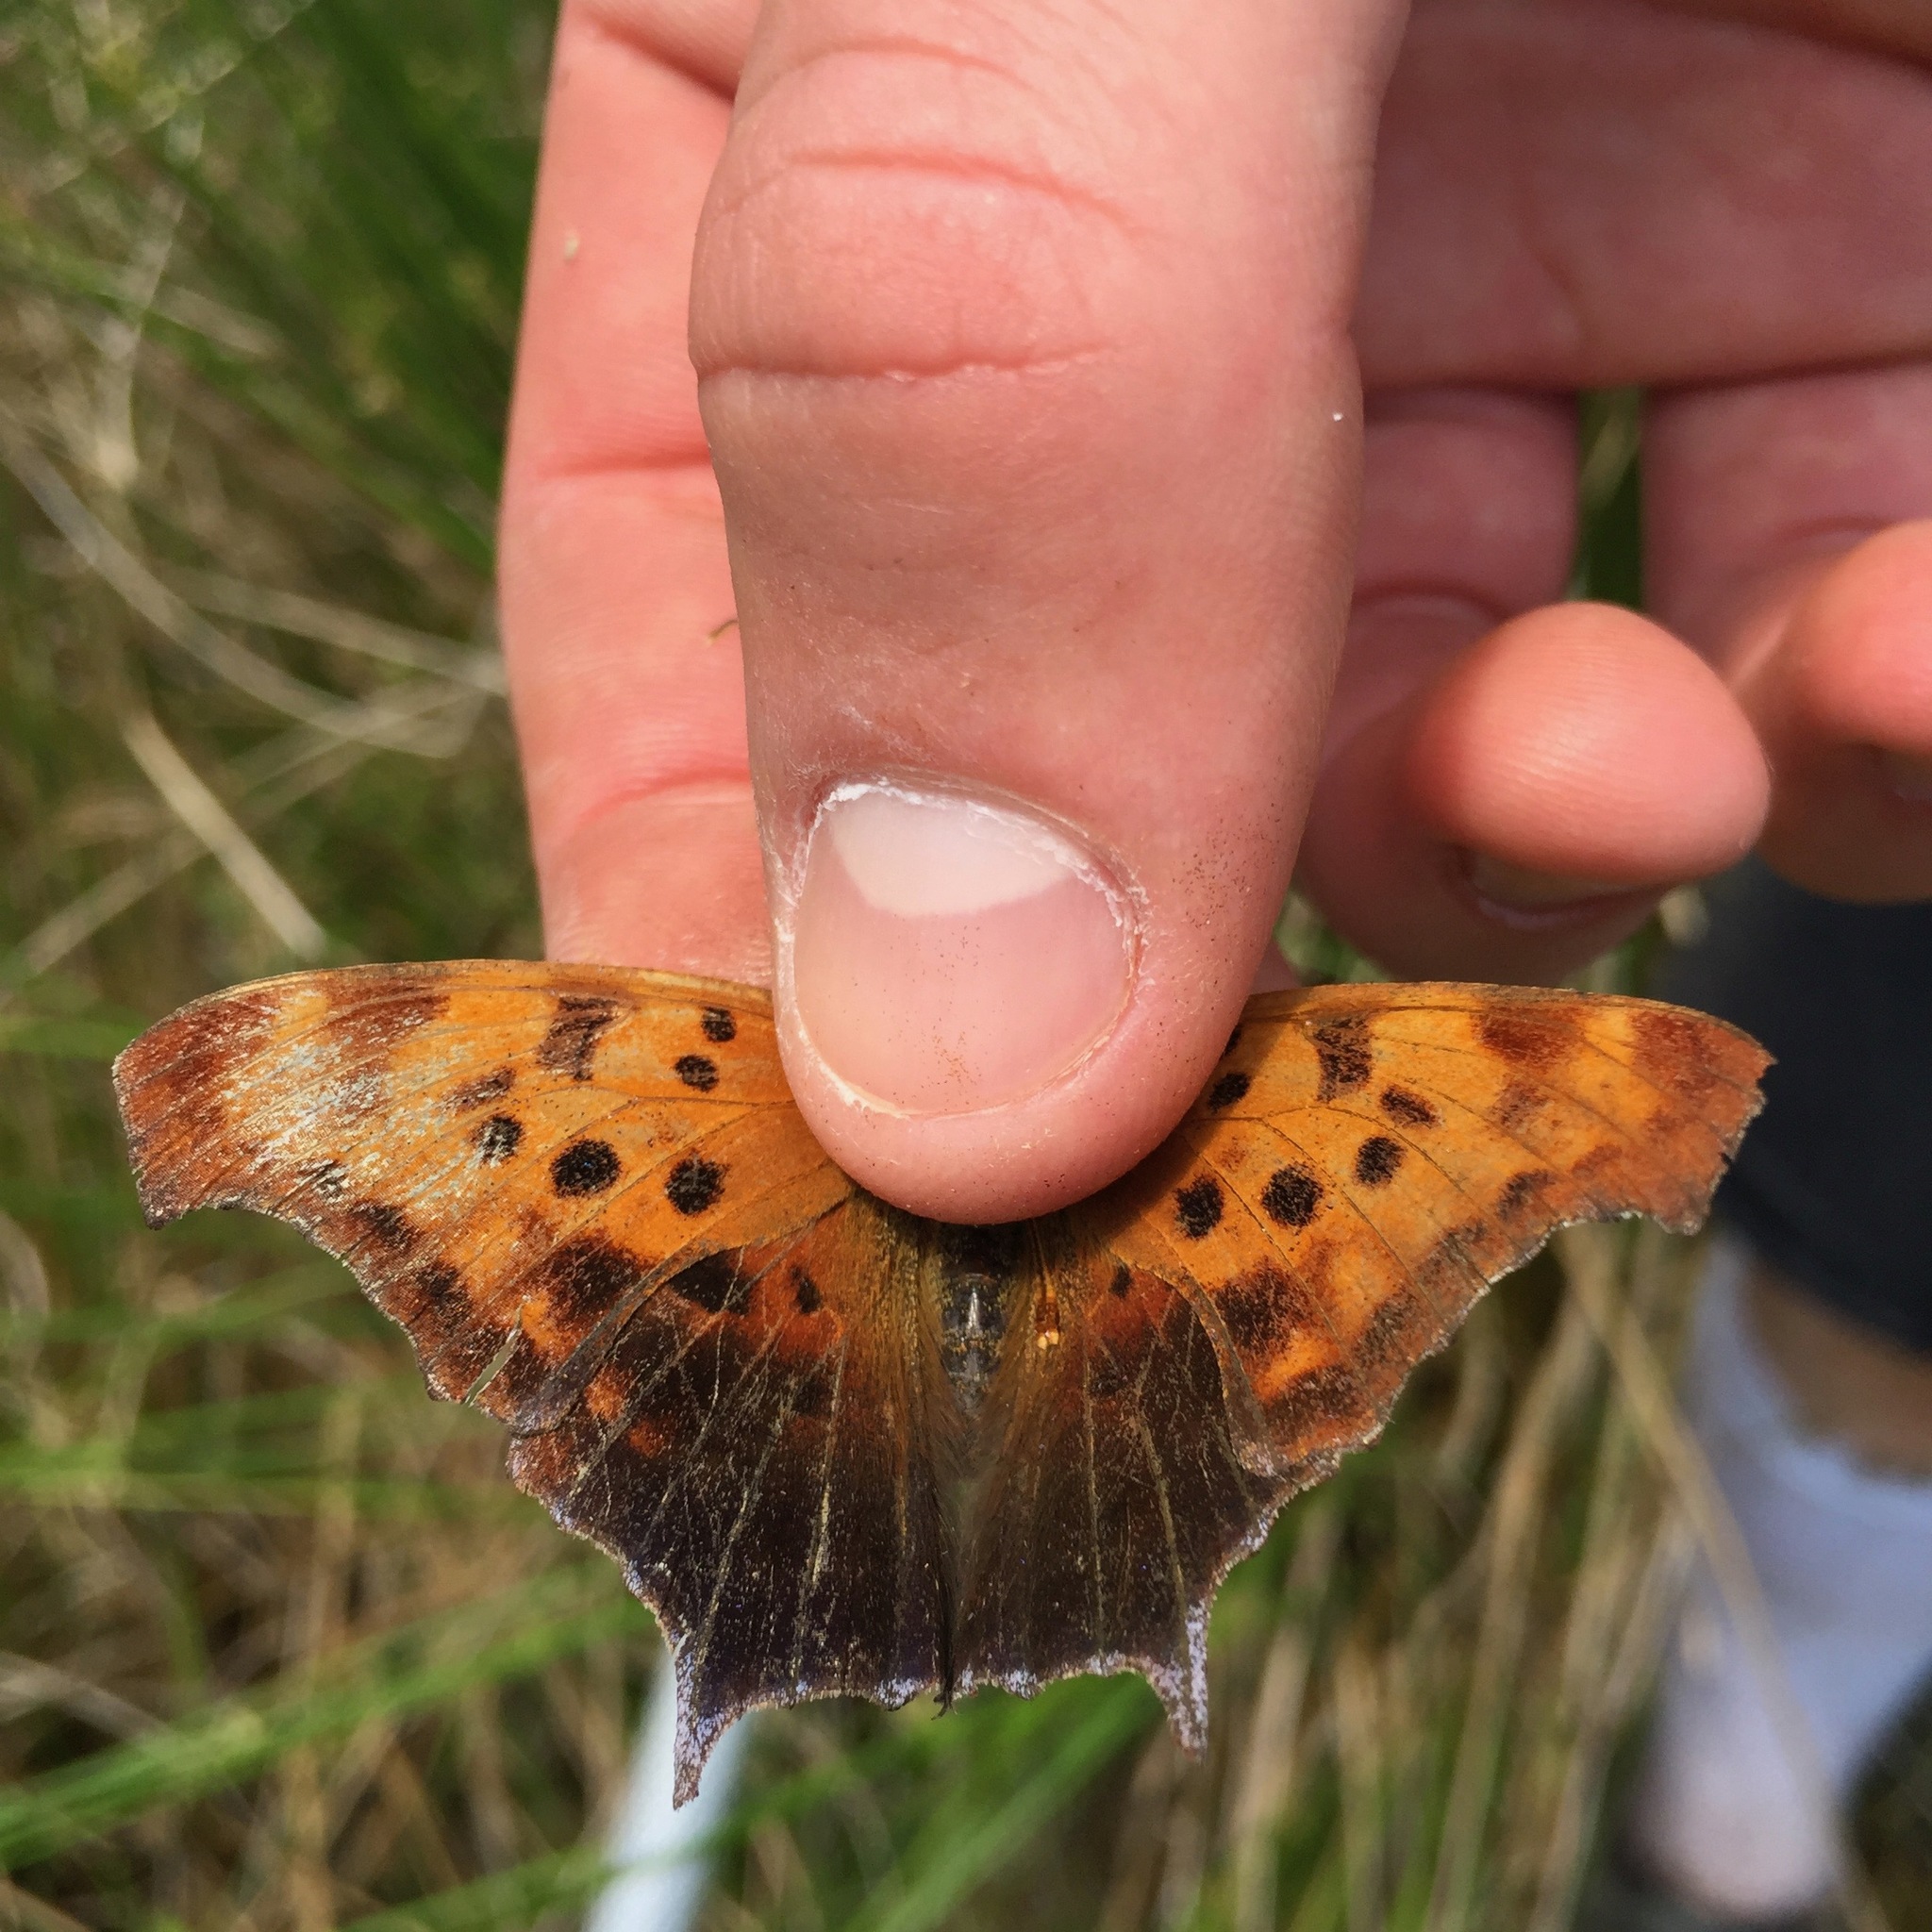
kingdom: Animalia
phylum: Arthropoda
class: Insecta
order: Lepidoptera
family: Nymphalidae
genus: Polygonia
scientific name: Polygonia interrogationis
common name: Question mark
